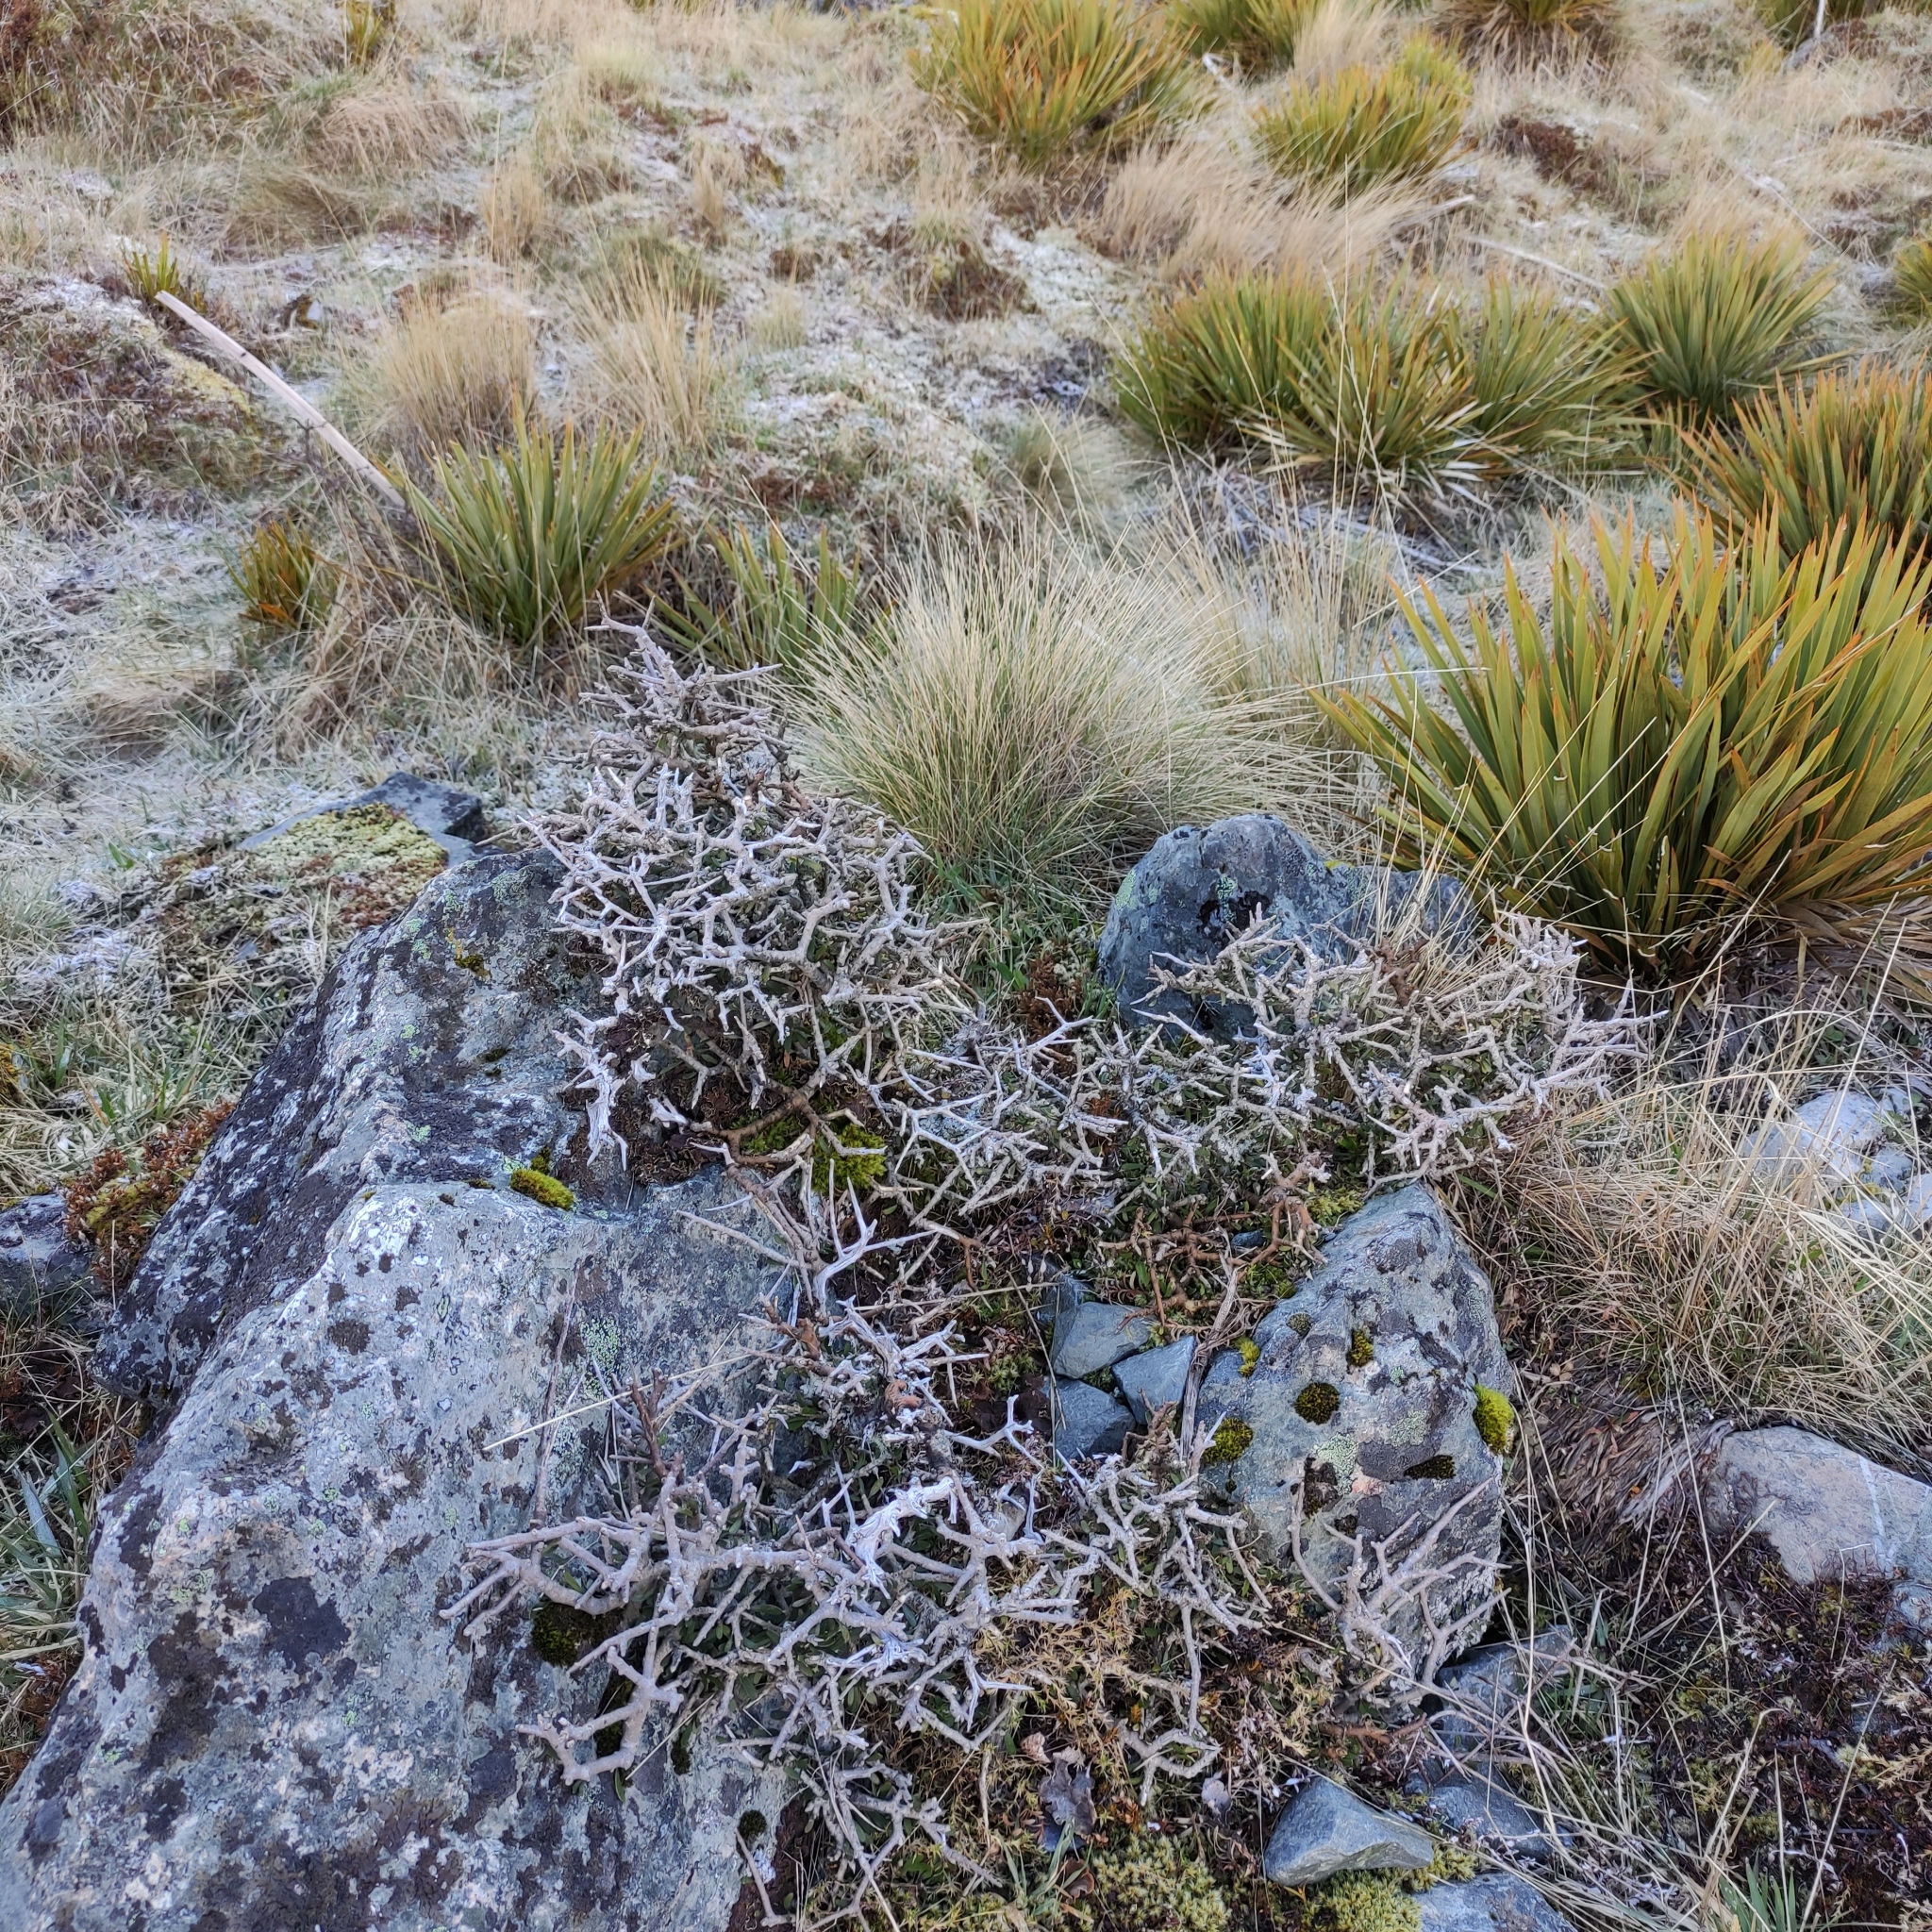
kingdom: Plantae
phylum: Tracheophyta
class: Magnoliopsida
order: Malpighiales
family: Violaceae
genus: Melicytus
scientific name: Melicytus alpinus
